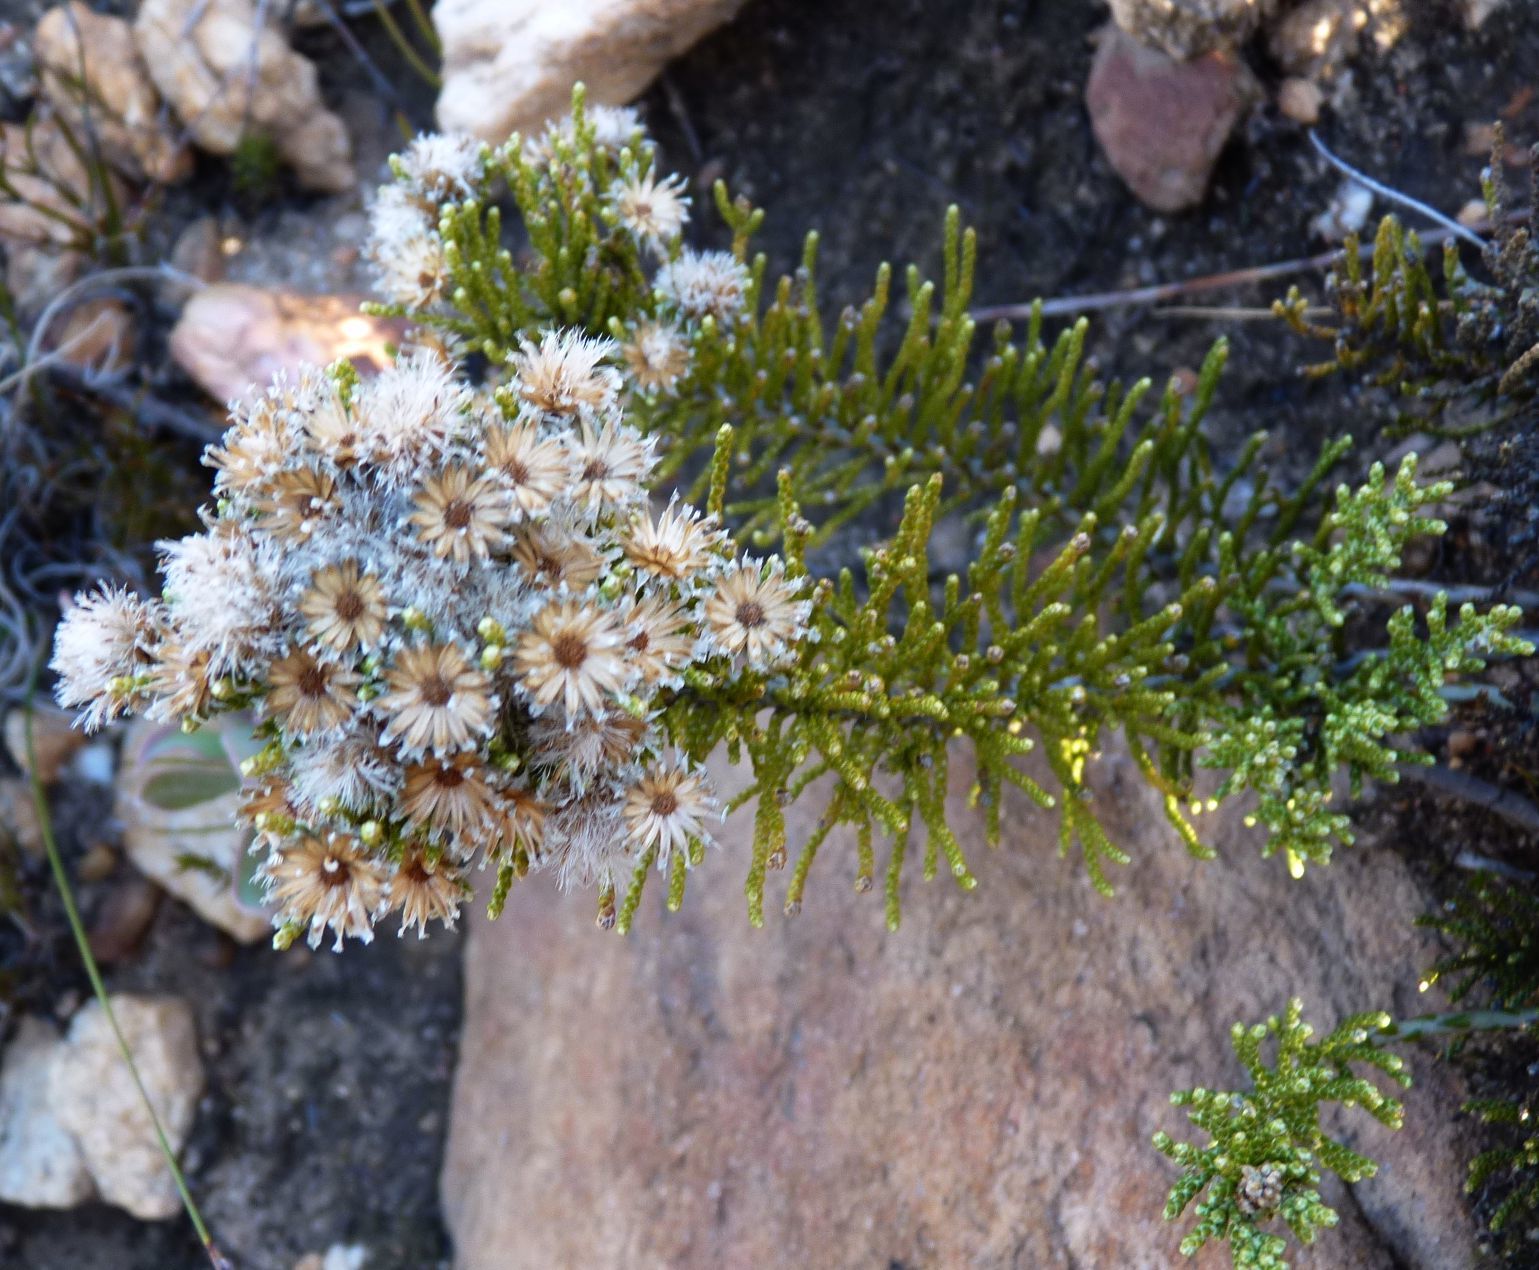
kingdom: Plantae
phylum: Tracheophyta
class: Magnoliopsida
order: Asterales
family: Asteraceae
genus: Dolichothrix
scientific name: Dolichothrix ericoides
